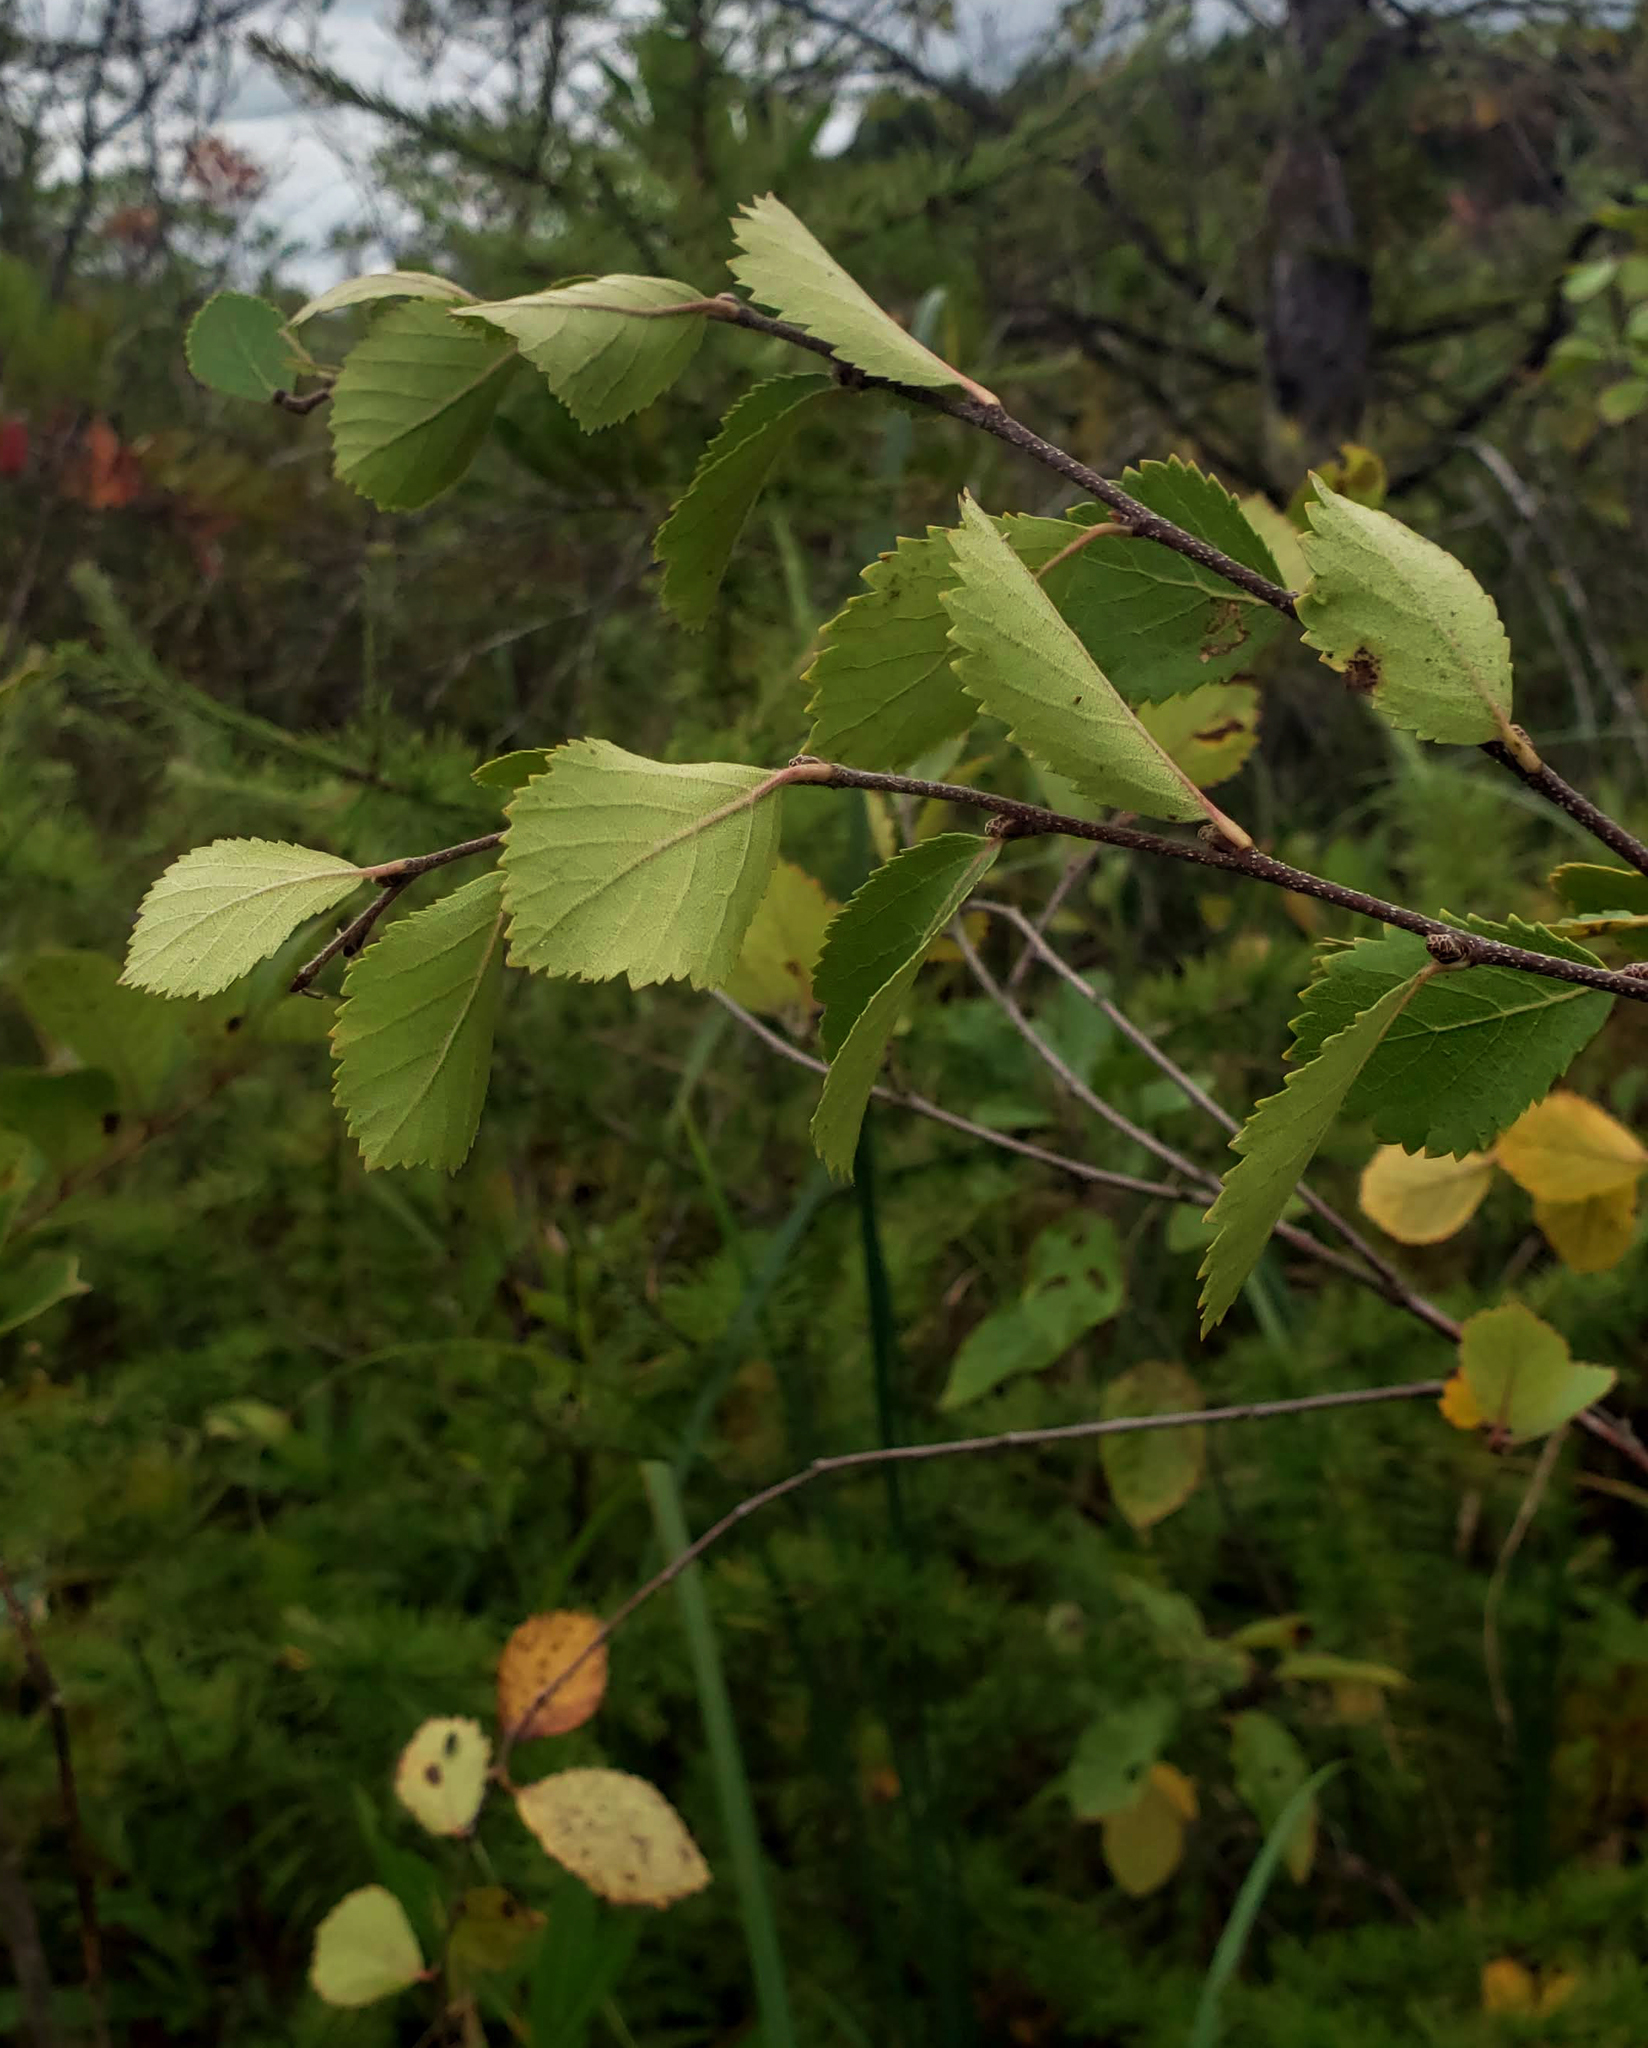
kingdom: Plantae
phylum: Tracheophyta
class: Magnoliopsida
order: Fagales
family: Betulaceae
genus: Betula
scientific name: Betula pumila
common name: Bog birch
